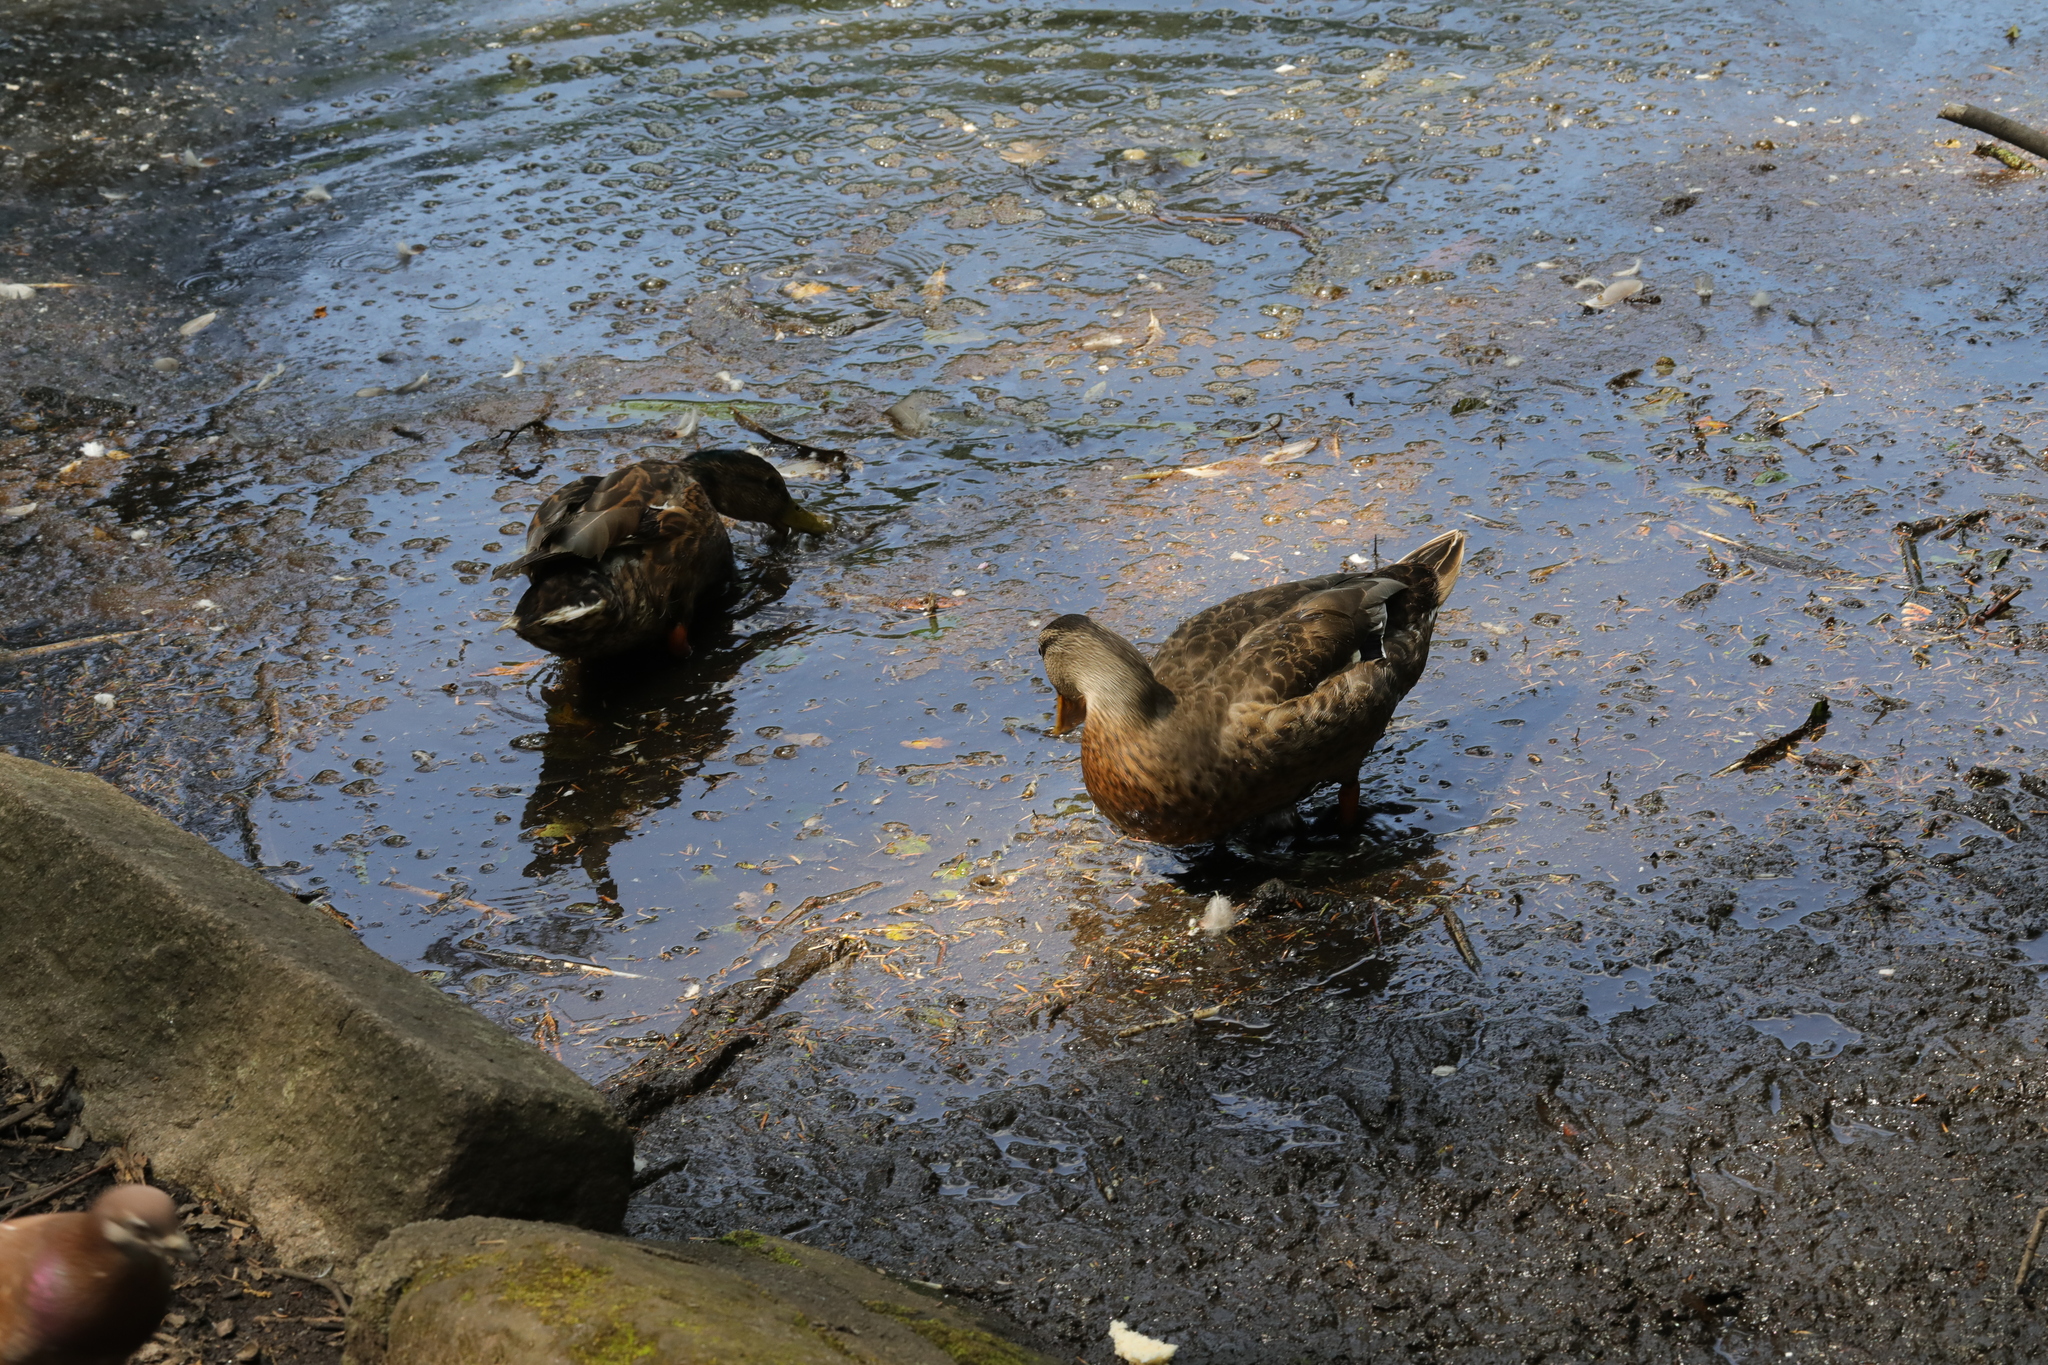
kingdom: Animalia
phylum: Chordata
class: Aves
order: Anseriformes
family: Anatidae
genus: Anas
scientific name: Anas platyrhynchos
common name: Mallard
